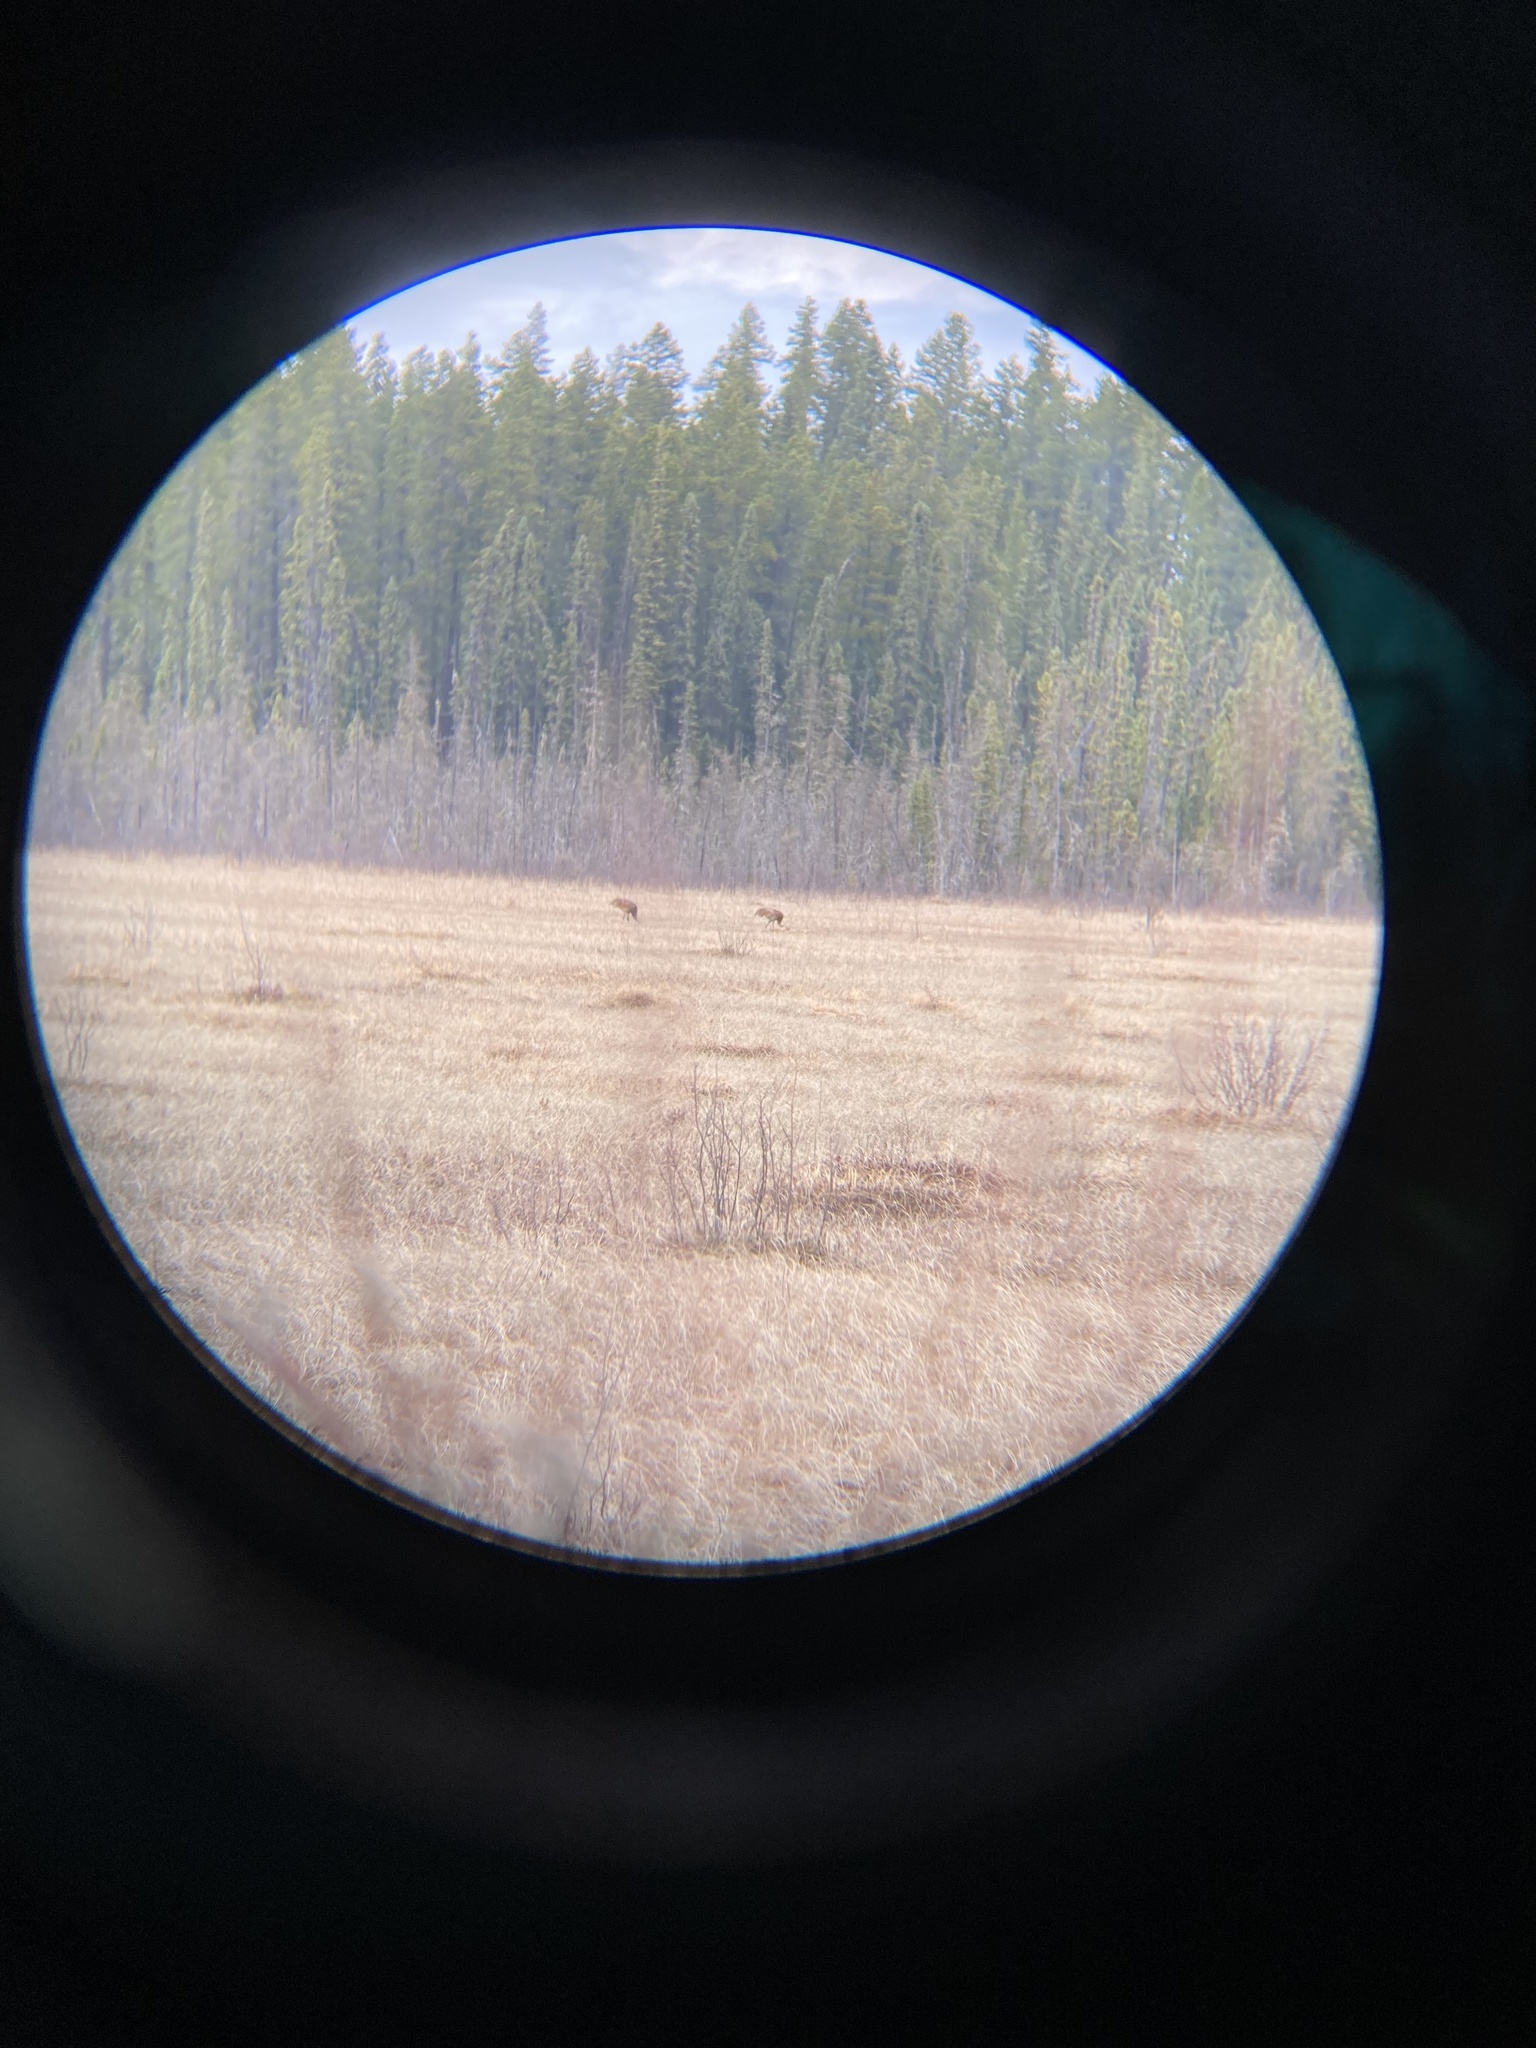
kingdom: Animalia
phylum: Chordata
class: Aves
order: Gruiformes
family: Gruidae
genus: Grus
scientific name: Grus canadensis
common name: Sandhill crane
